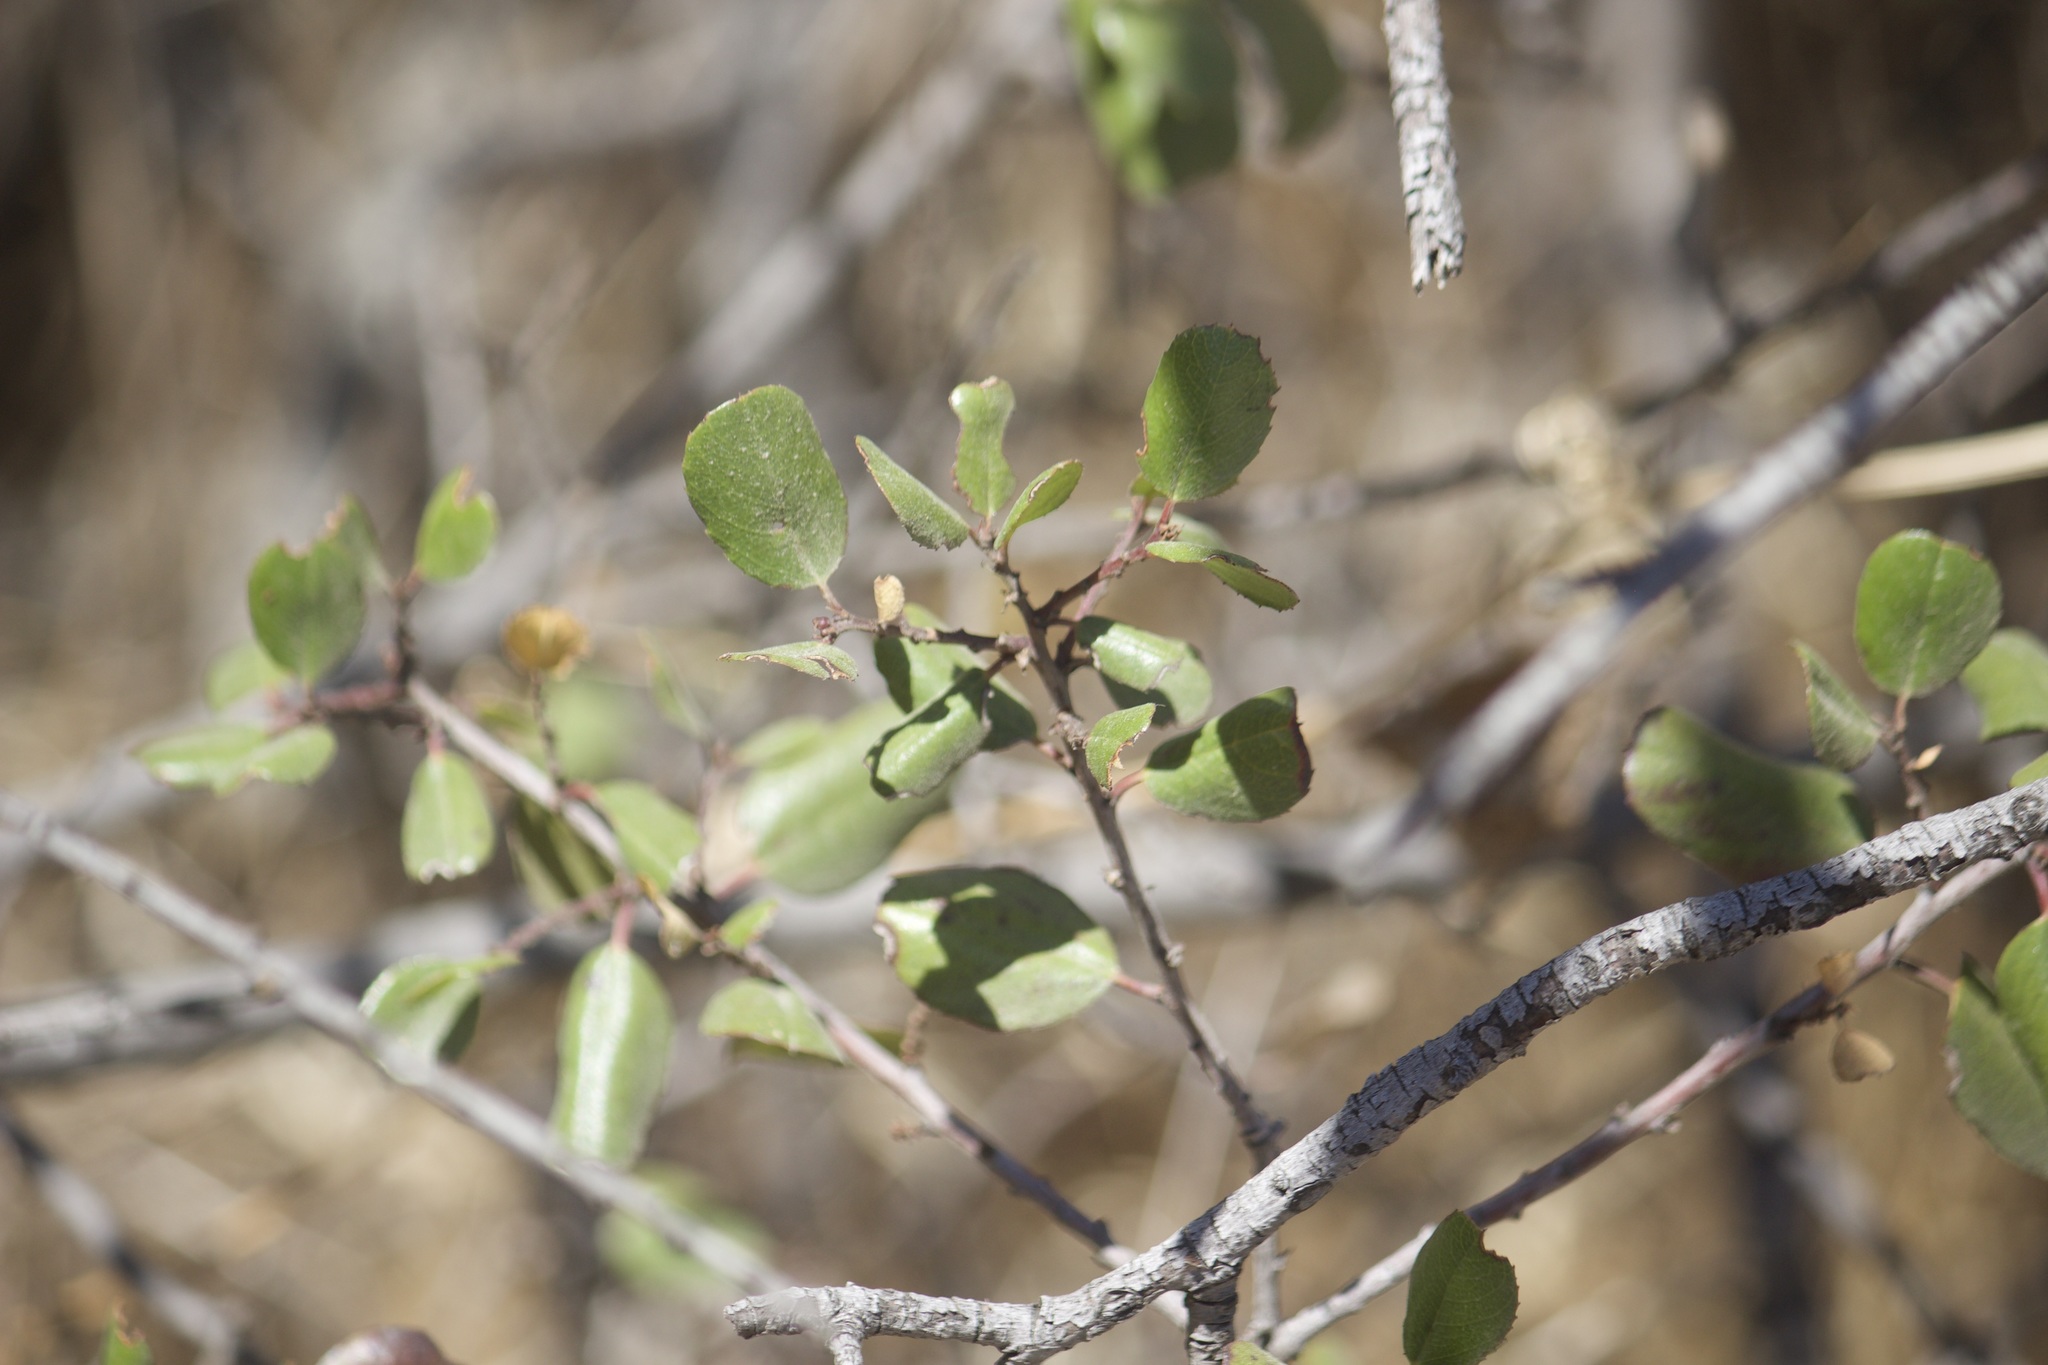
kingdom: Plantae
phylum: Tracheophyta
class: Magnoliopsida
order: Rosales
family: Rhamnaceae
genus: Endotropis
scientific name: Endotropis crocea
